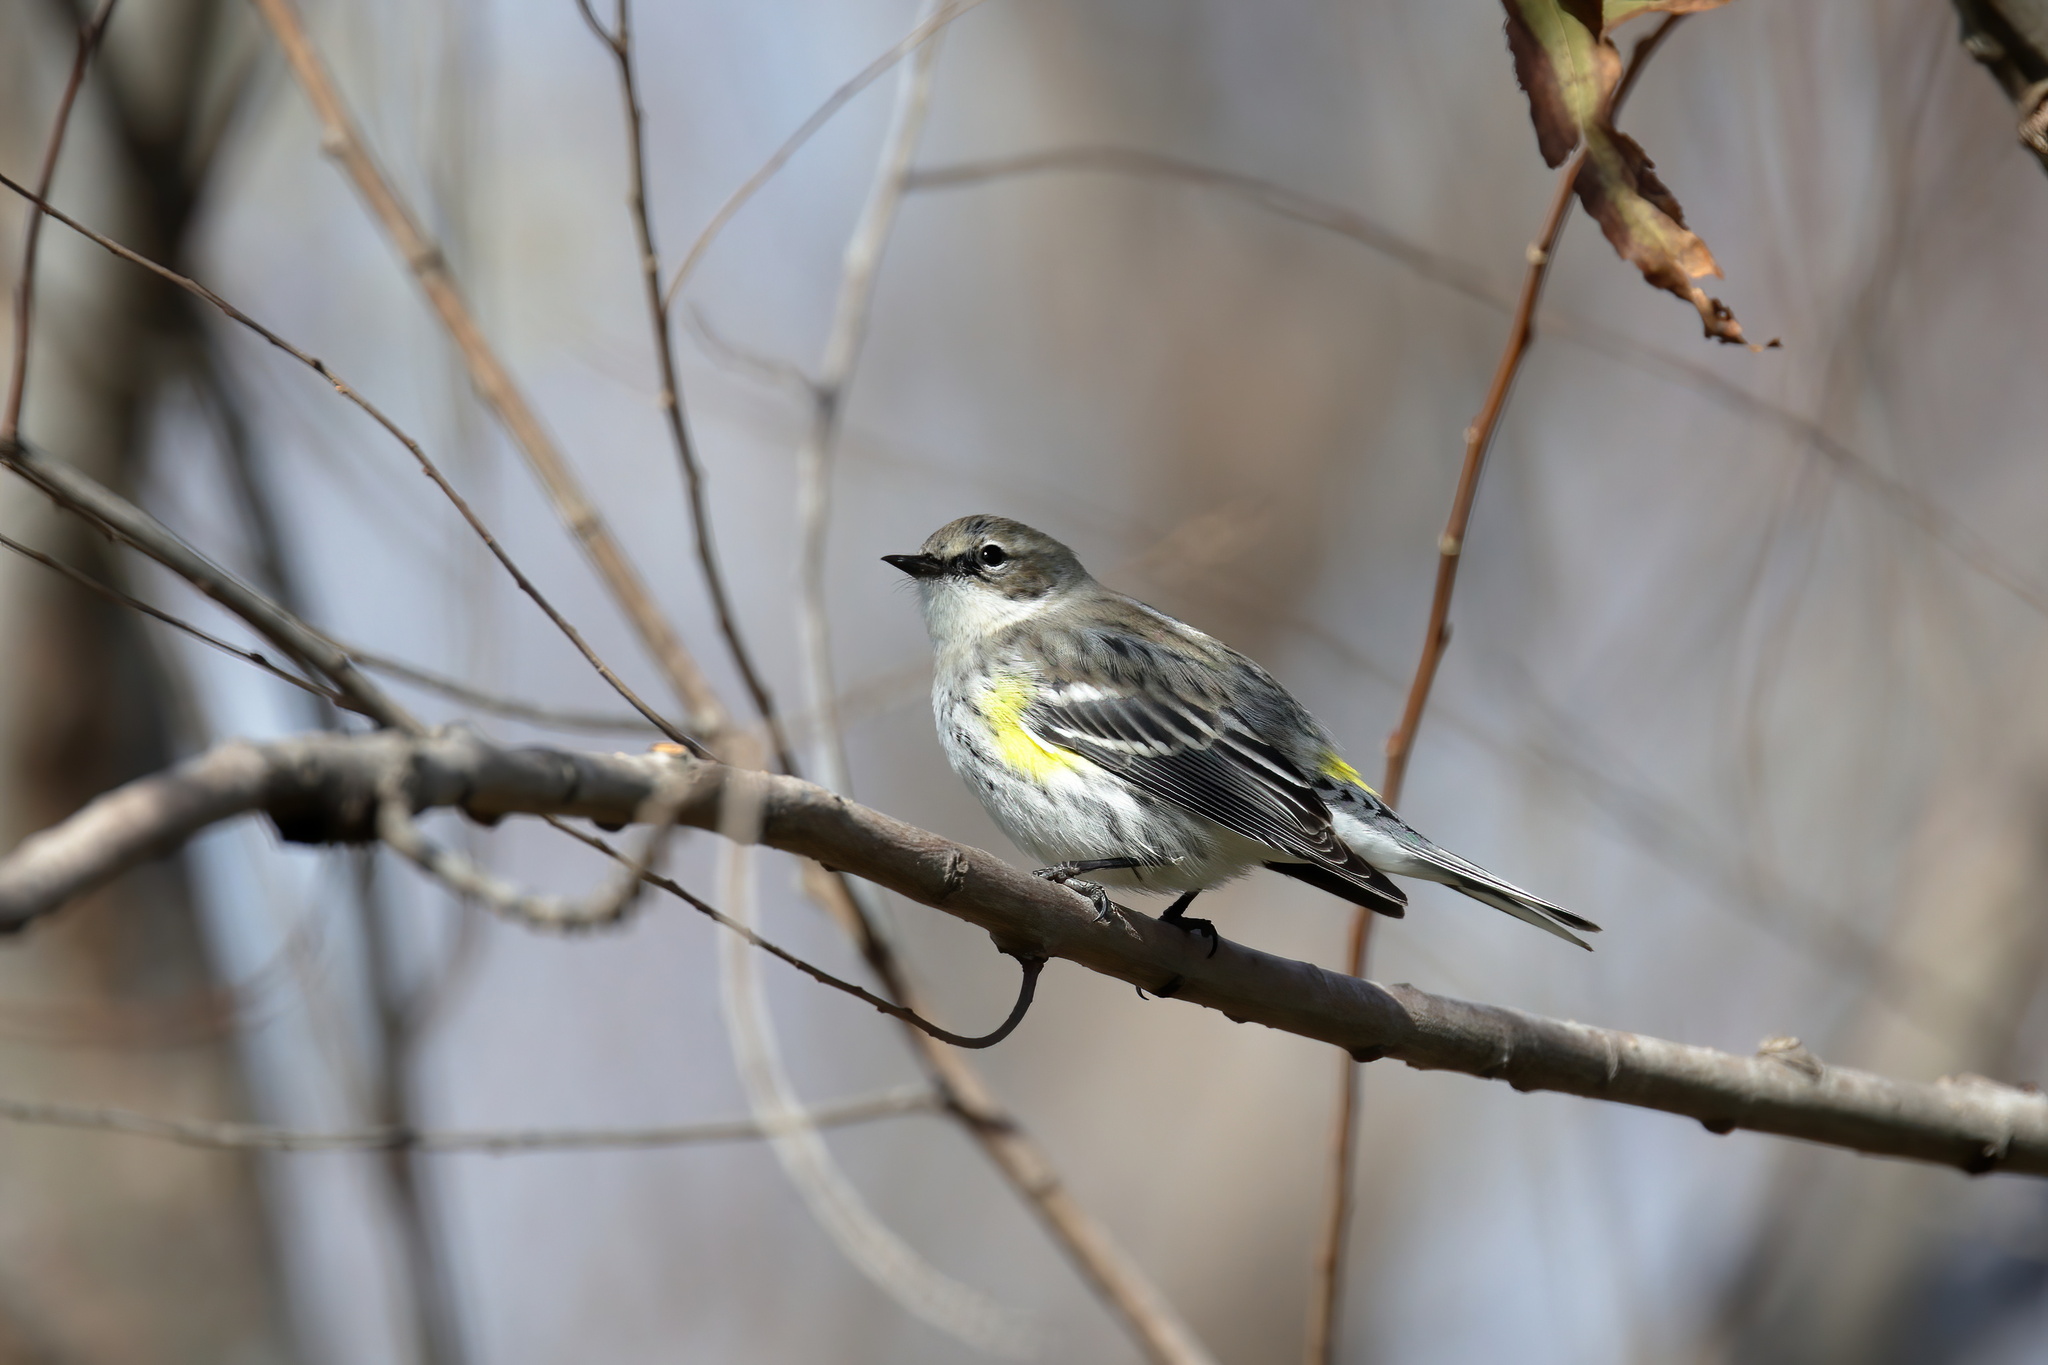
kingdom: Animalia
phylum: Chordata
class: Aves
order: Passeriformes
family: Parulidae
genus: Setophaga
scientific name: Setophaga coronata
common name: Myrtle warbler
